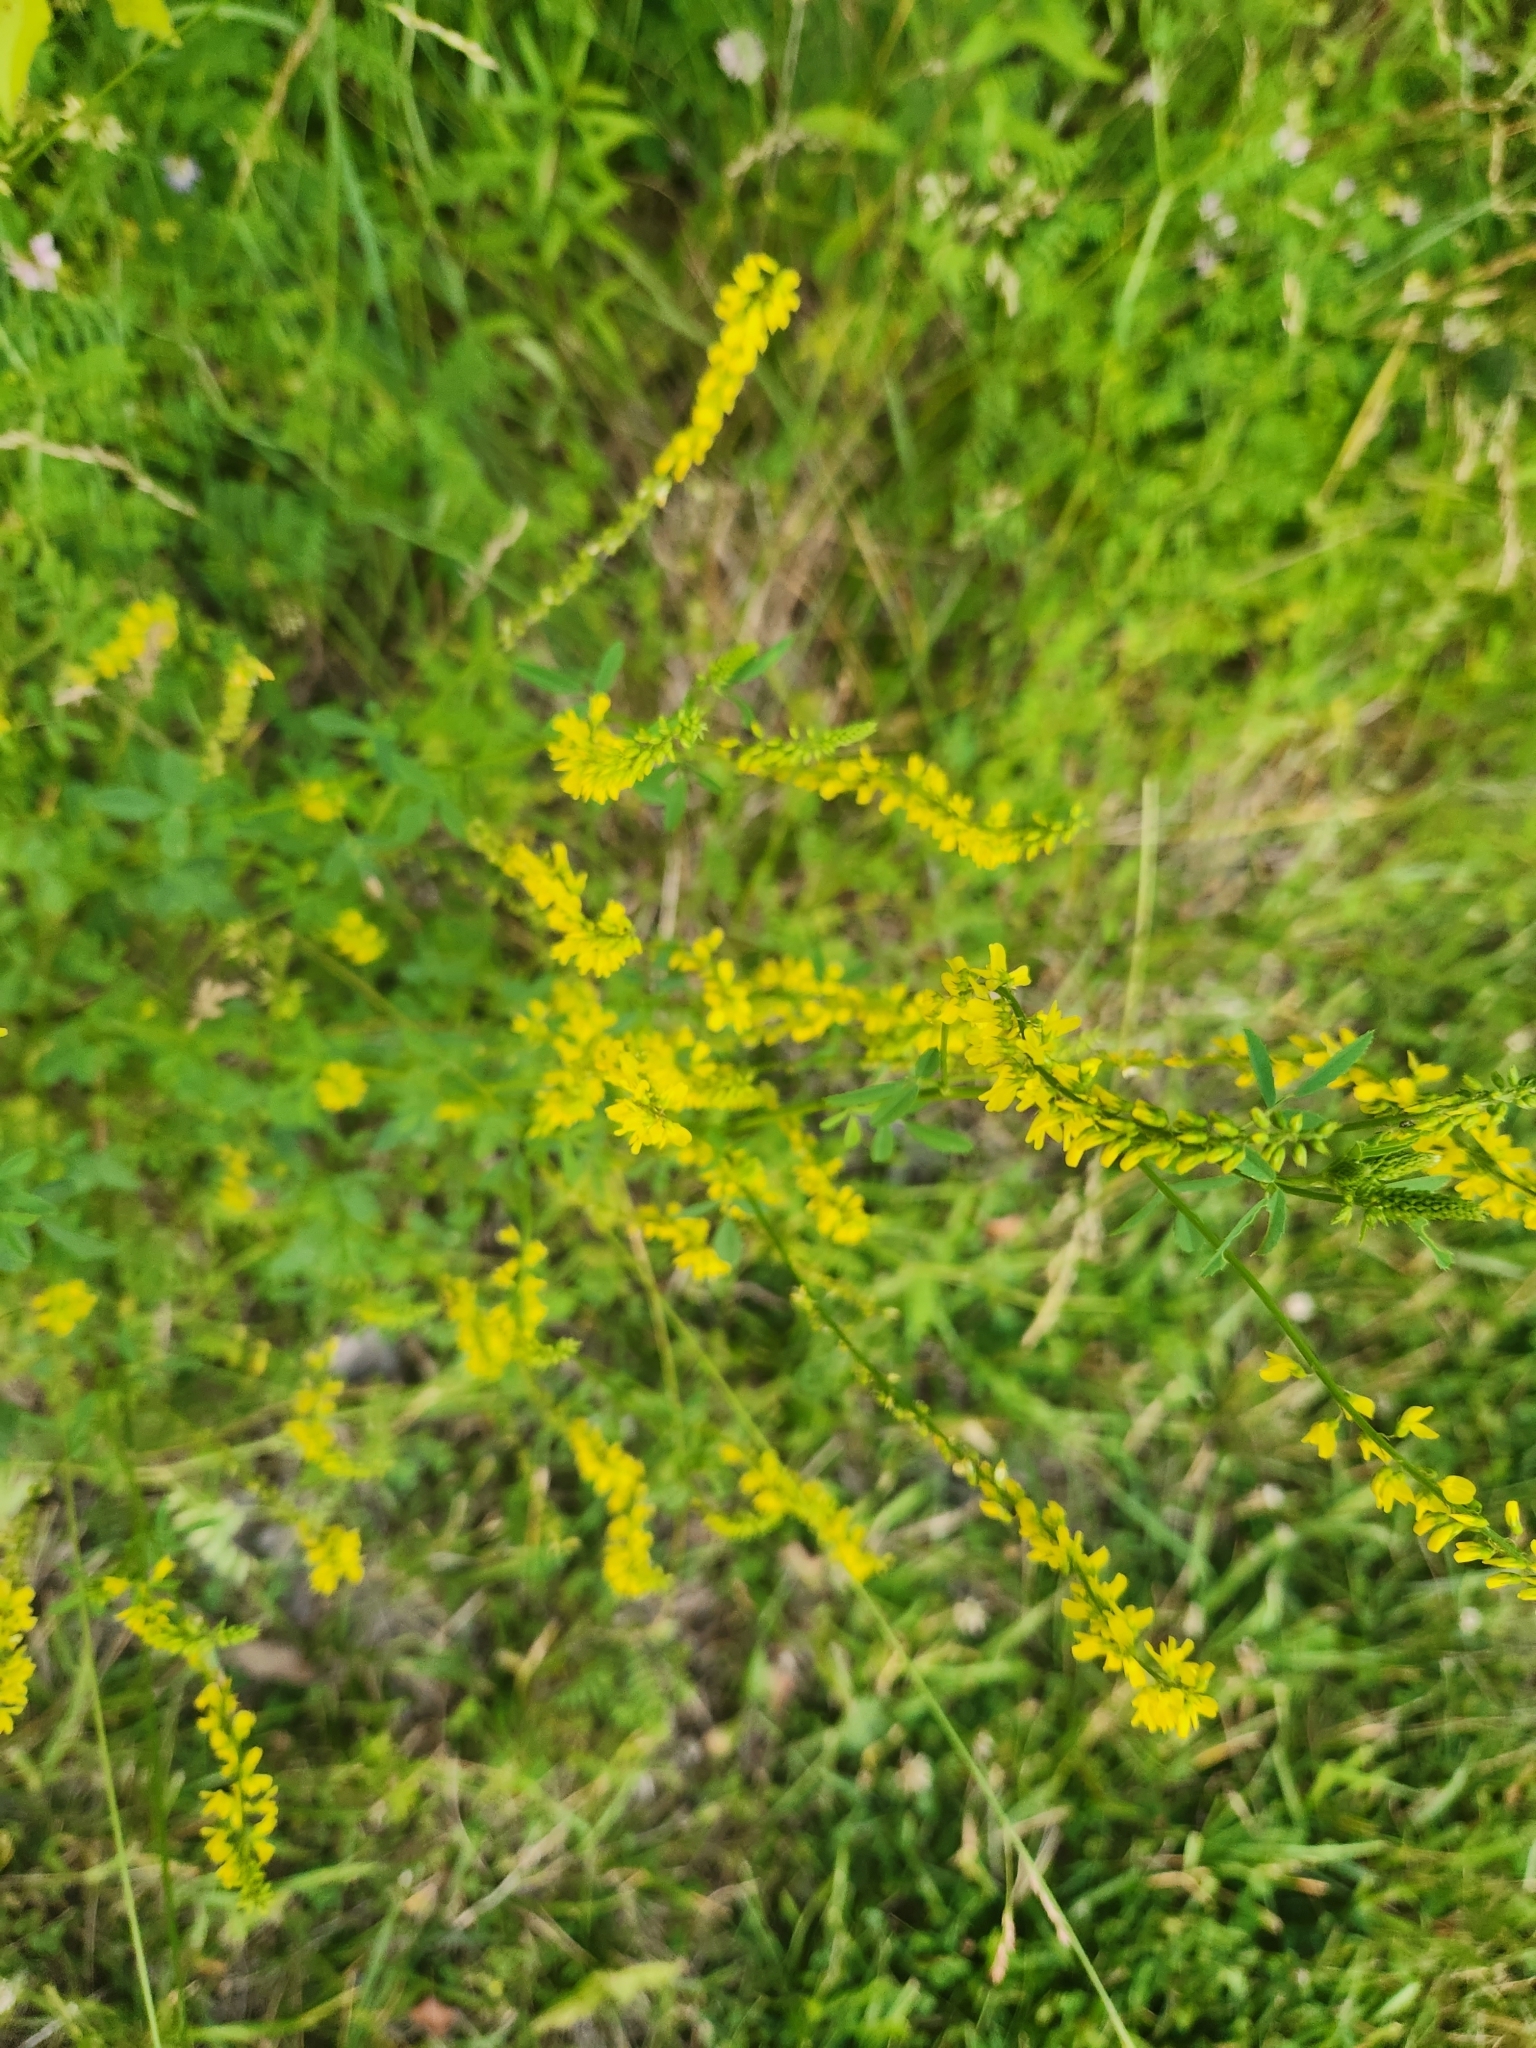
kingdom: Plantae
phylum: Tracheophyta
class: Magnoliopsida
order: Fabales
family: Fabaceae
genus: Melilotus
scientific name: Melilotus officinalis
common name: Sweetclover
